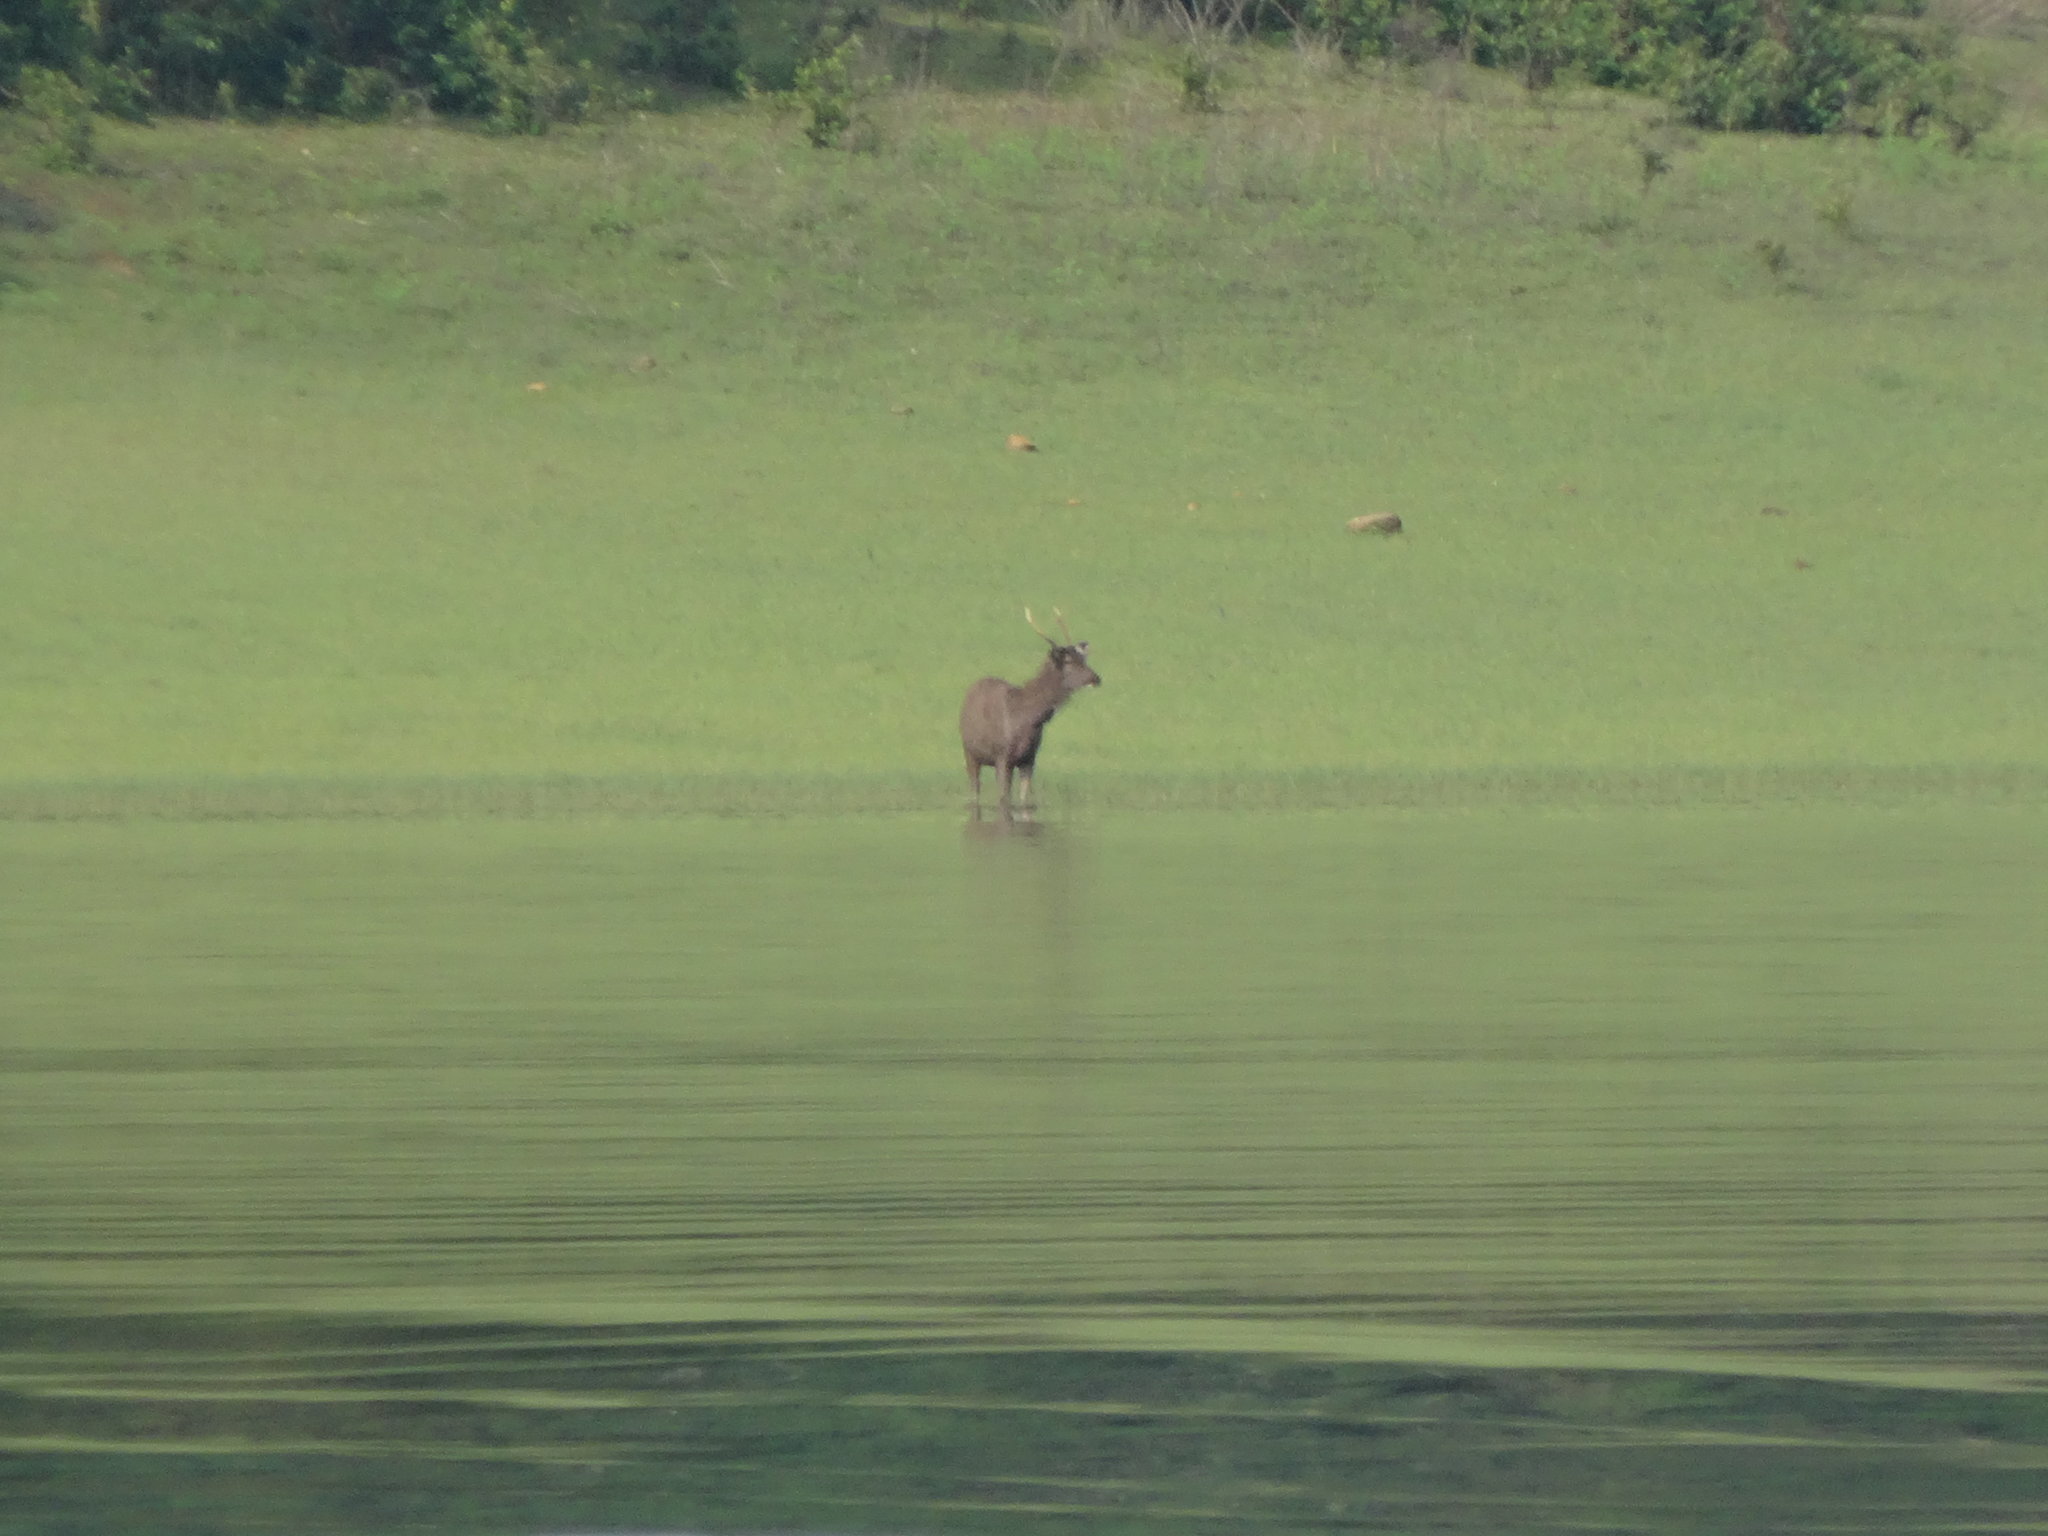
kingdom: Animalia
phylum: Chordata
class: Mammalia
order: Artiodactyla
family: Cervidae
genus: Rusa
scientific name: Rusa unicolor
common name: Sambar
